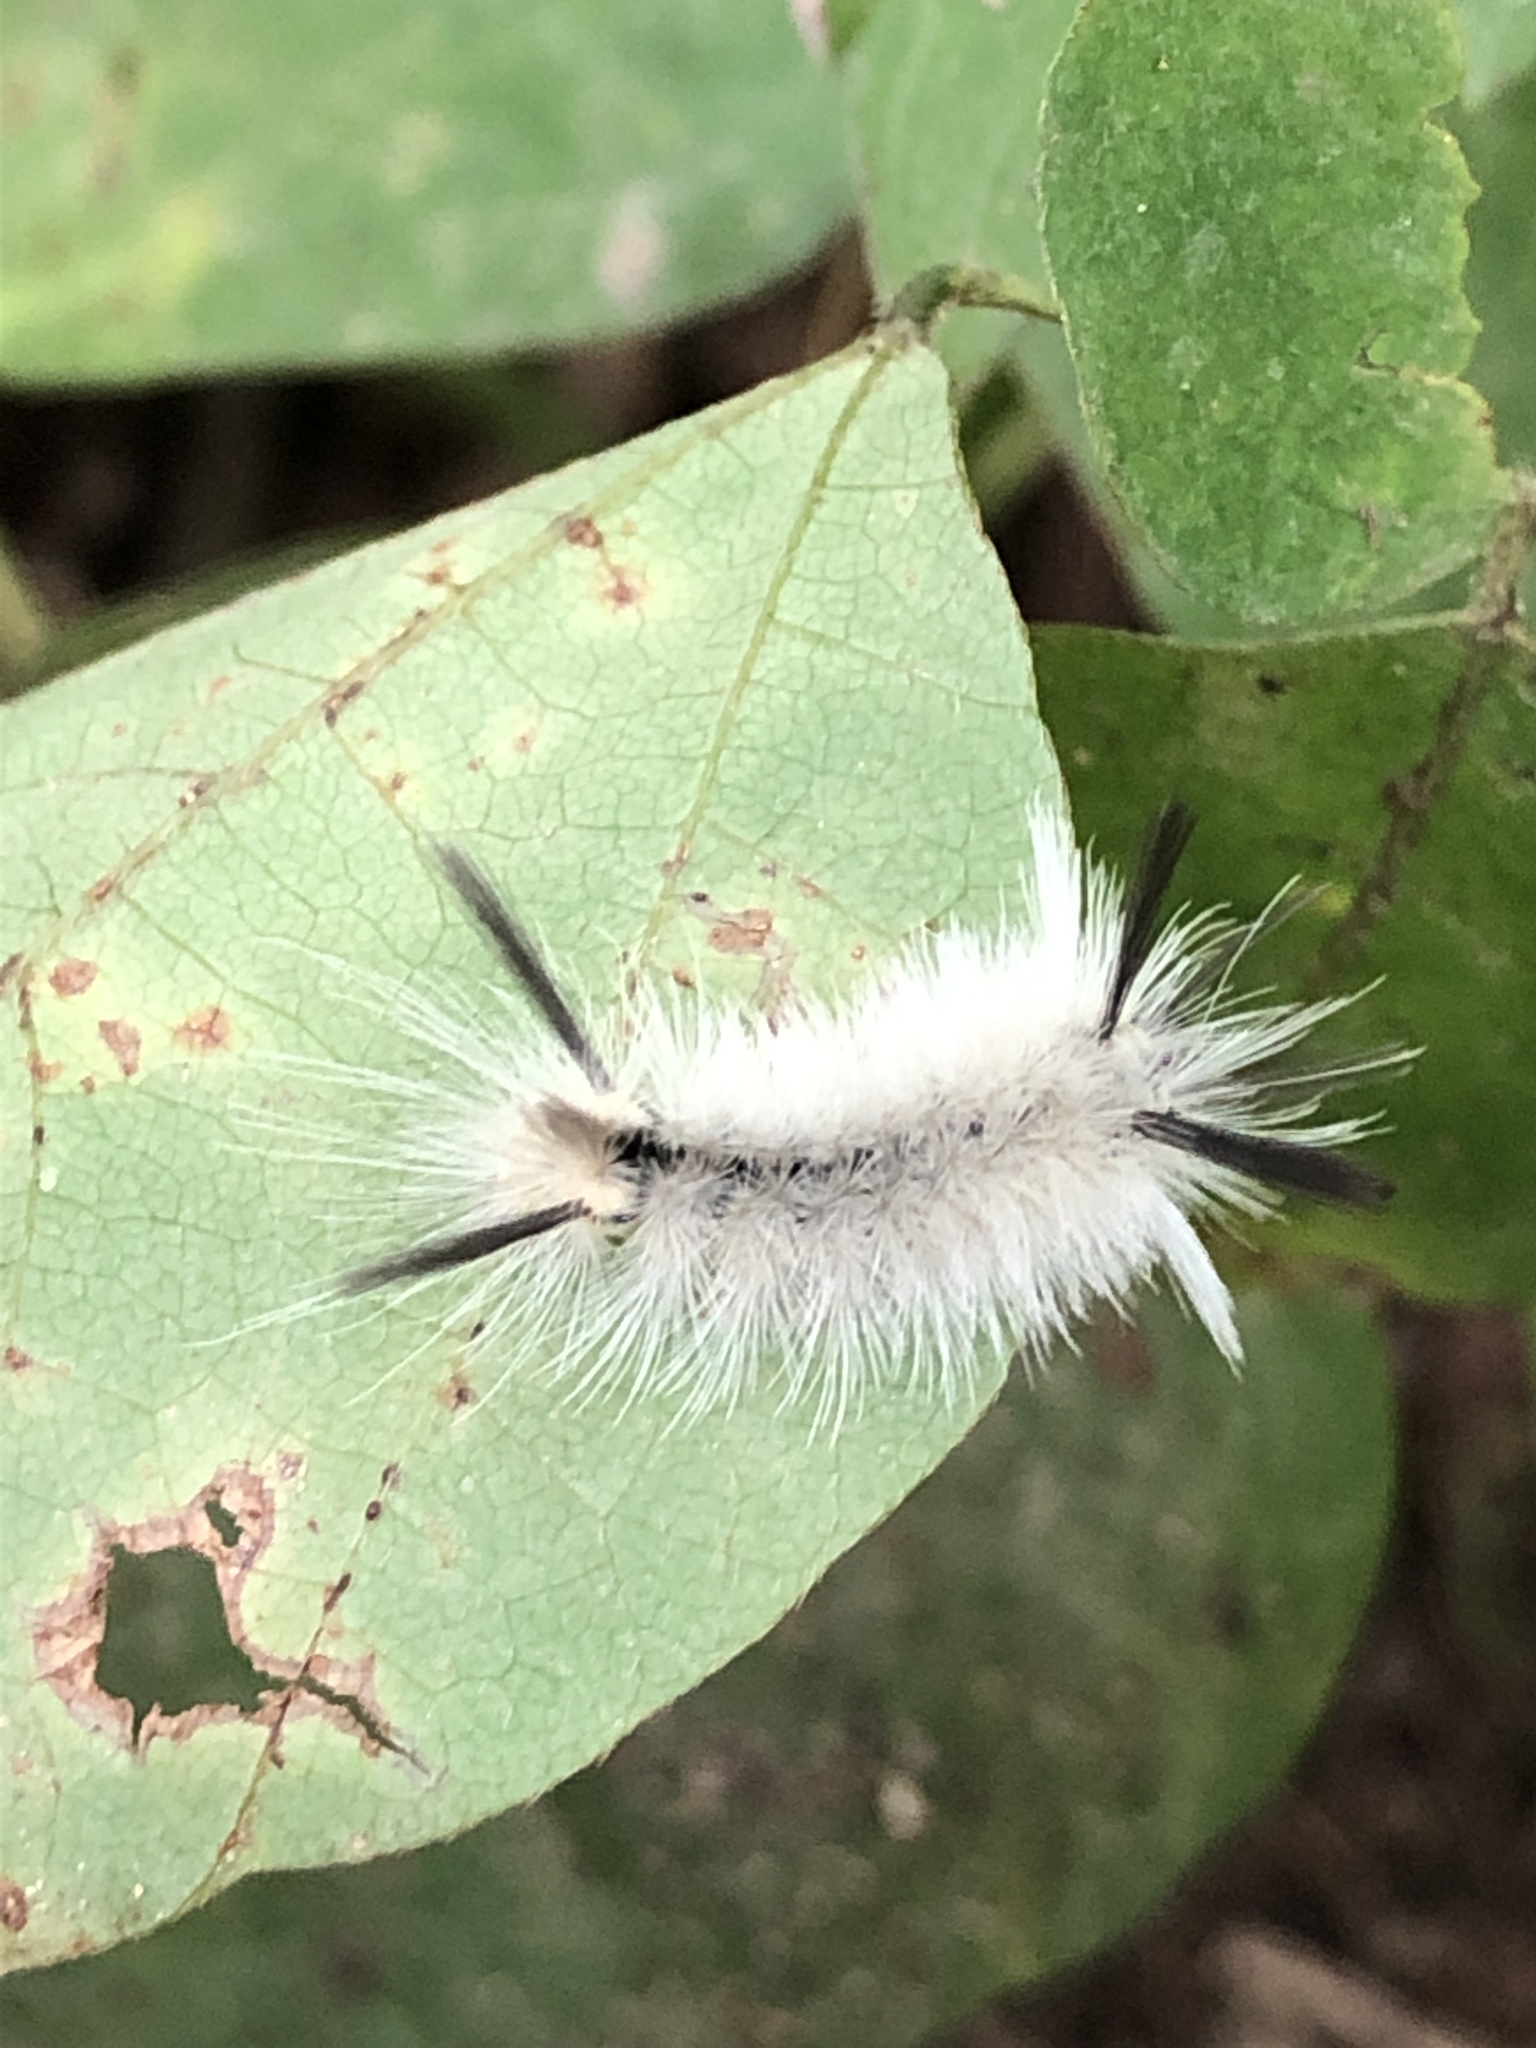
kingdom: Animalia
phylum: Arthropoda
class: Insecta
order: Lepidoptera
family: Erebidae
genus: Halysidota
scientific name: Halysidota tessellaris
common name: Banded tussock moth
